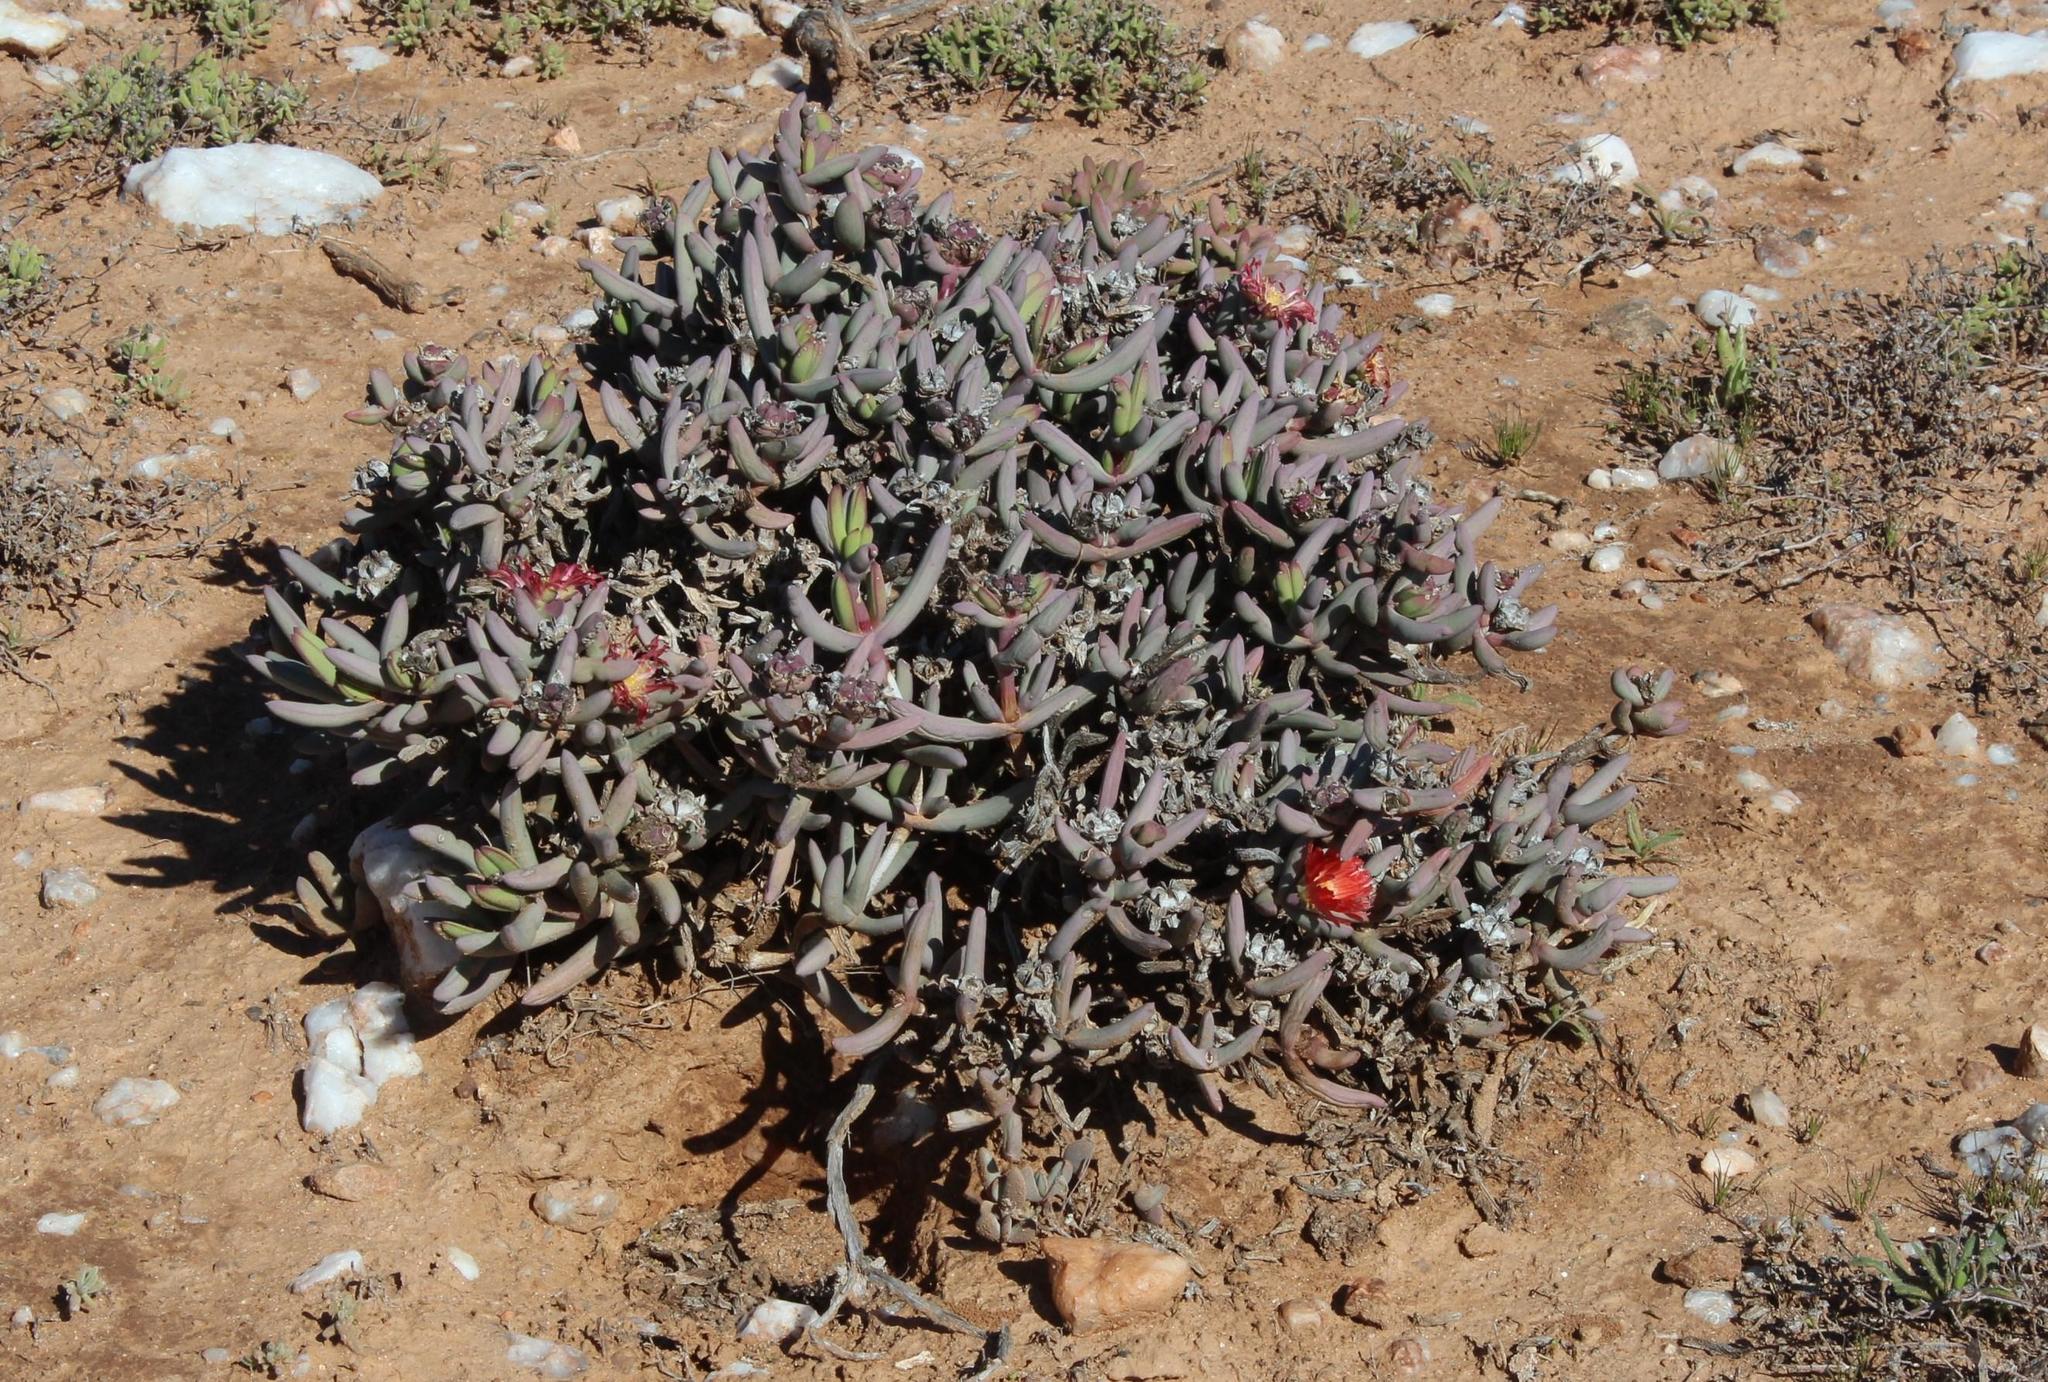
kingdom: Plantae
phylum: Tracheophyta
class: Magnoliopsida
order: Caryophyllales
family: Aizoaceae
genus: Malephora
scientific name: Malephora purpureocrocea
